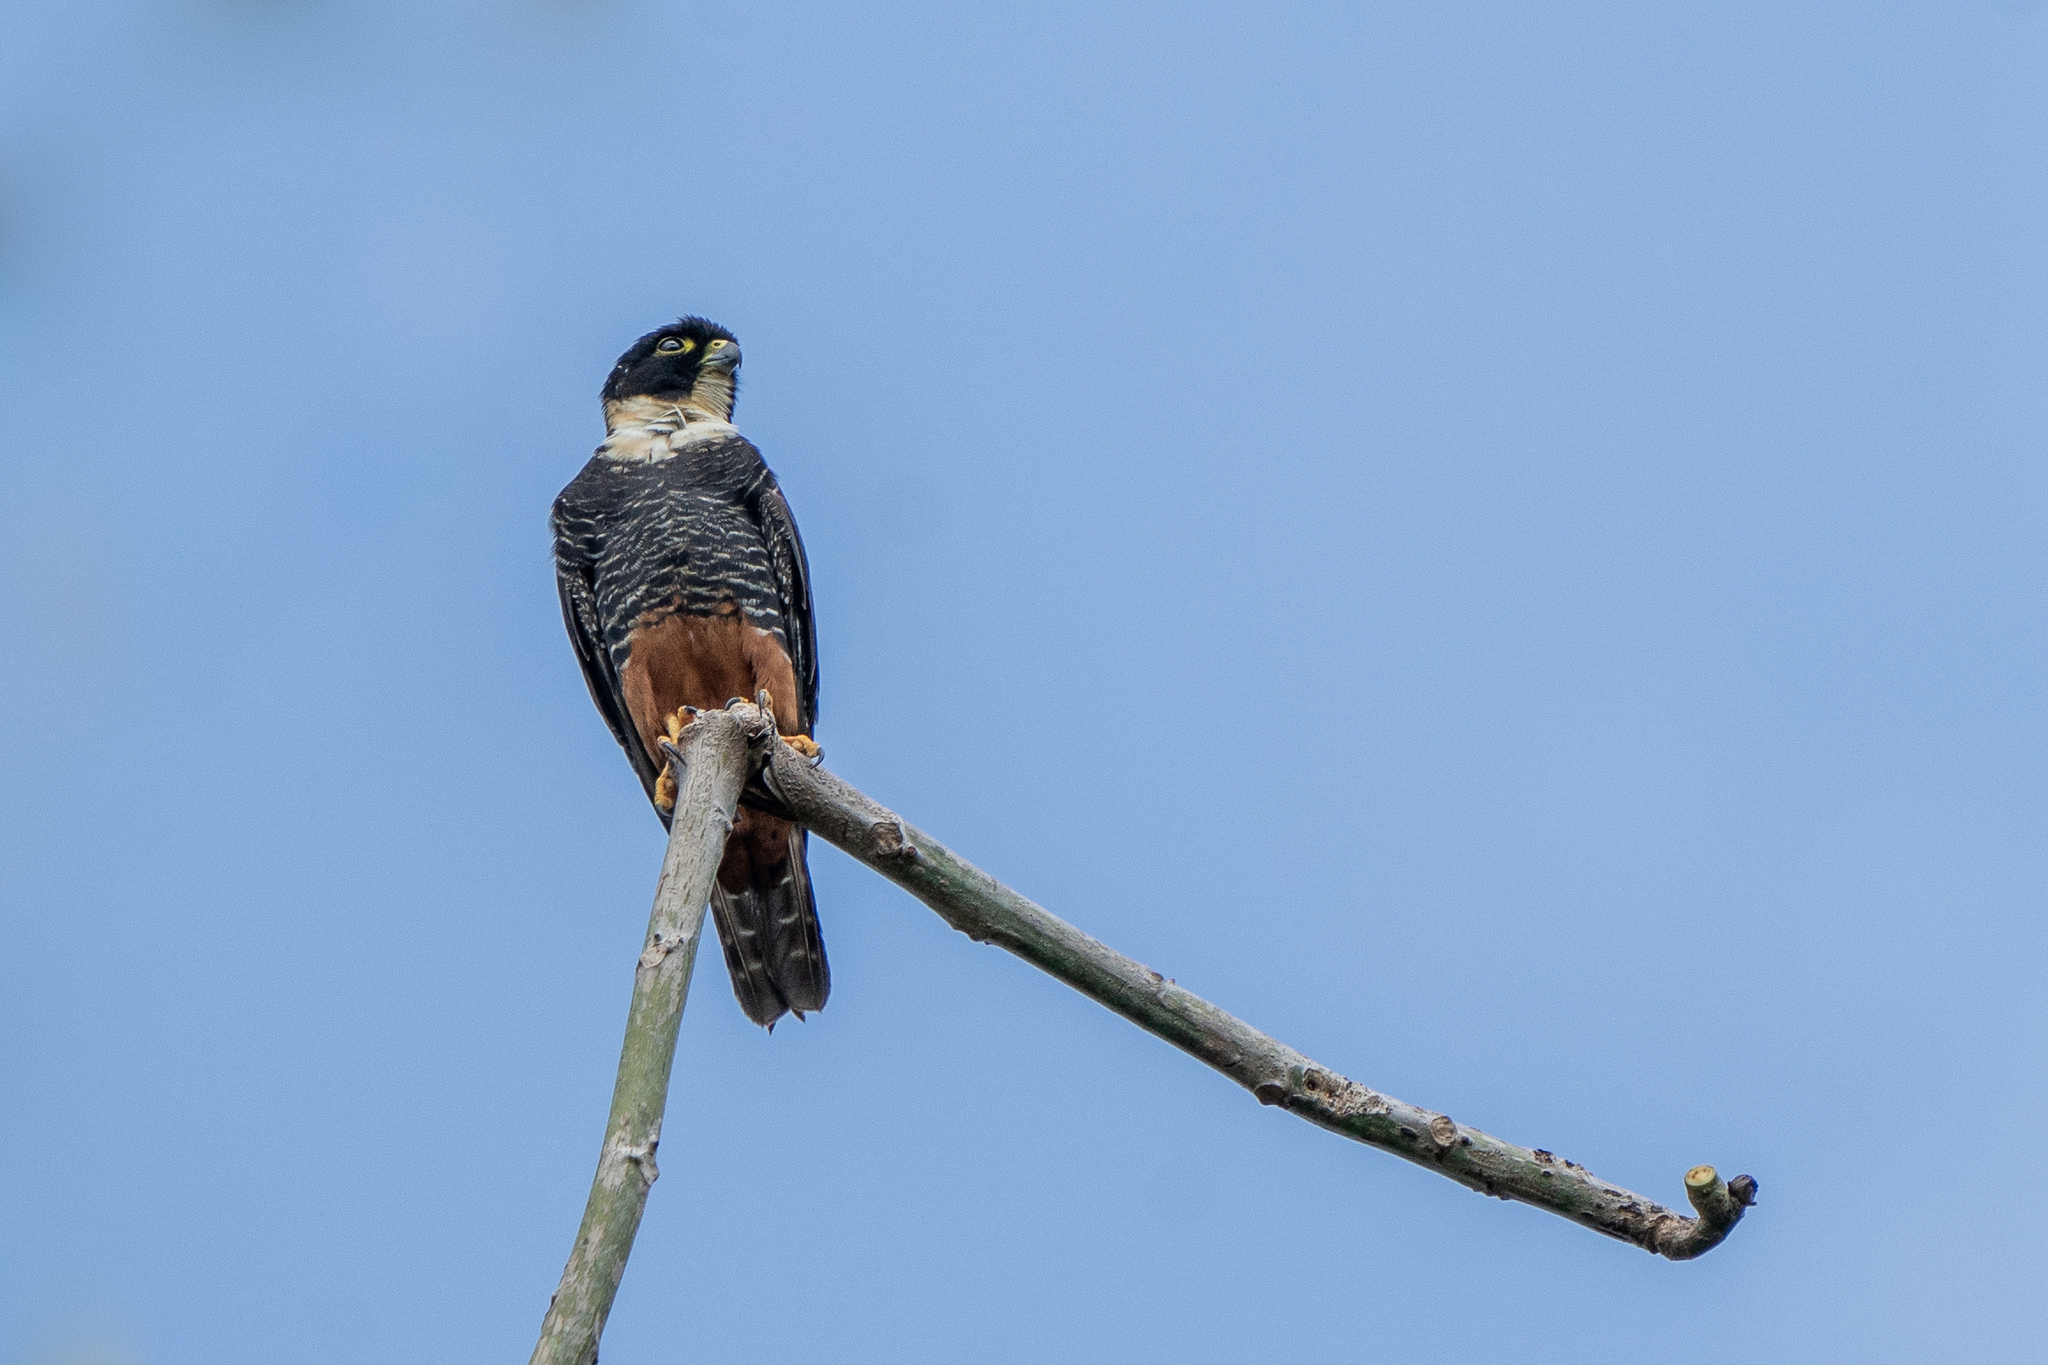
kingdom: Animalia
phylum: Chordata
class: Aves
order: Falconiformes
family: Falconidae
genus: Falco
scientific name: Falco rufigularis
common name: Bat falcon
